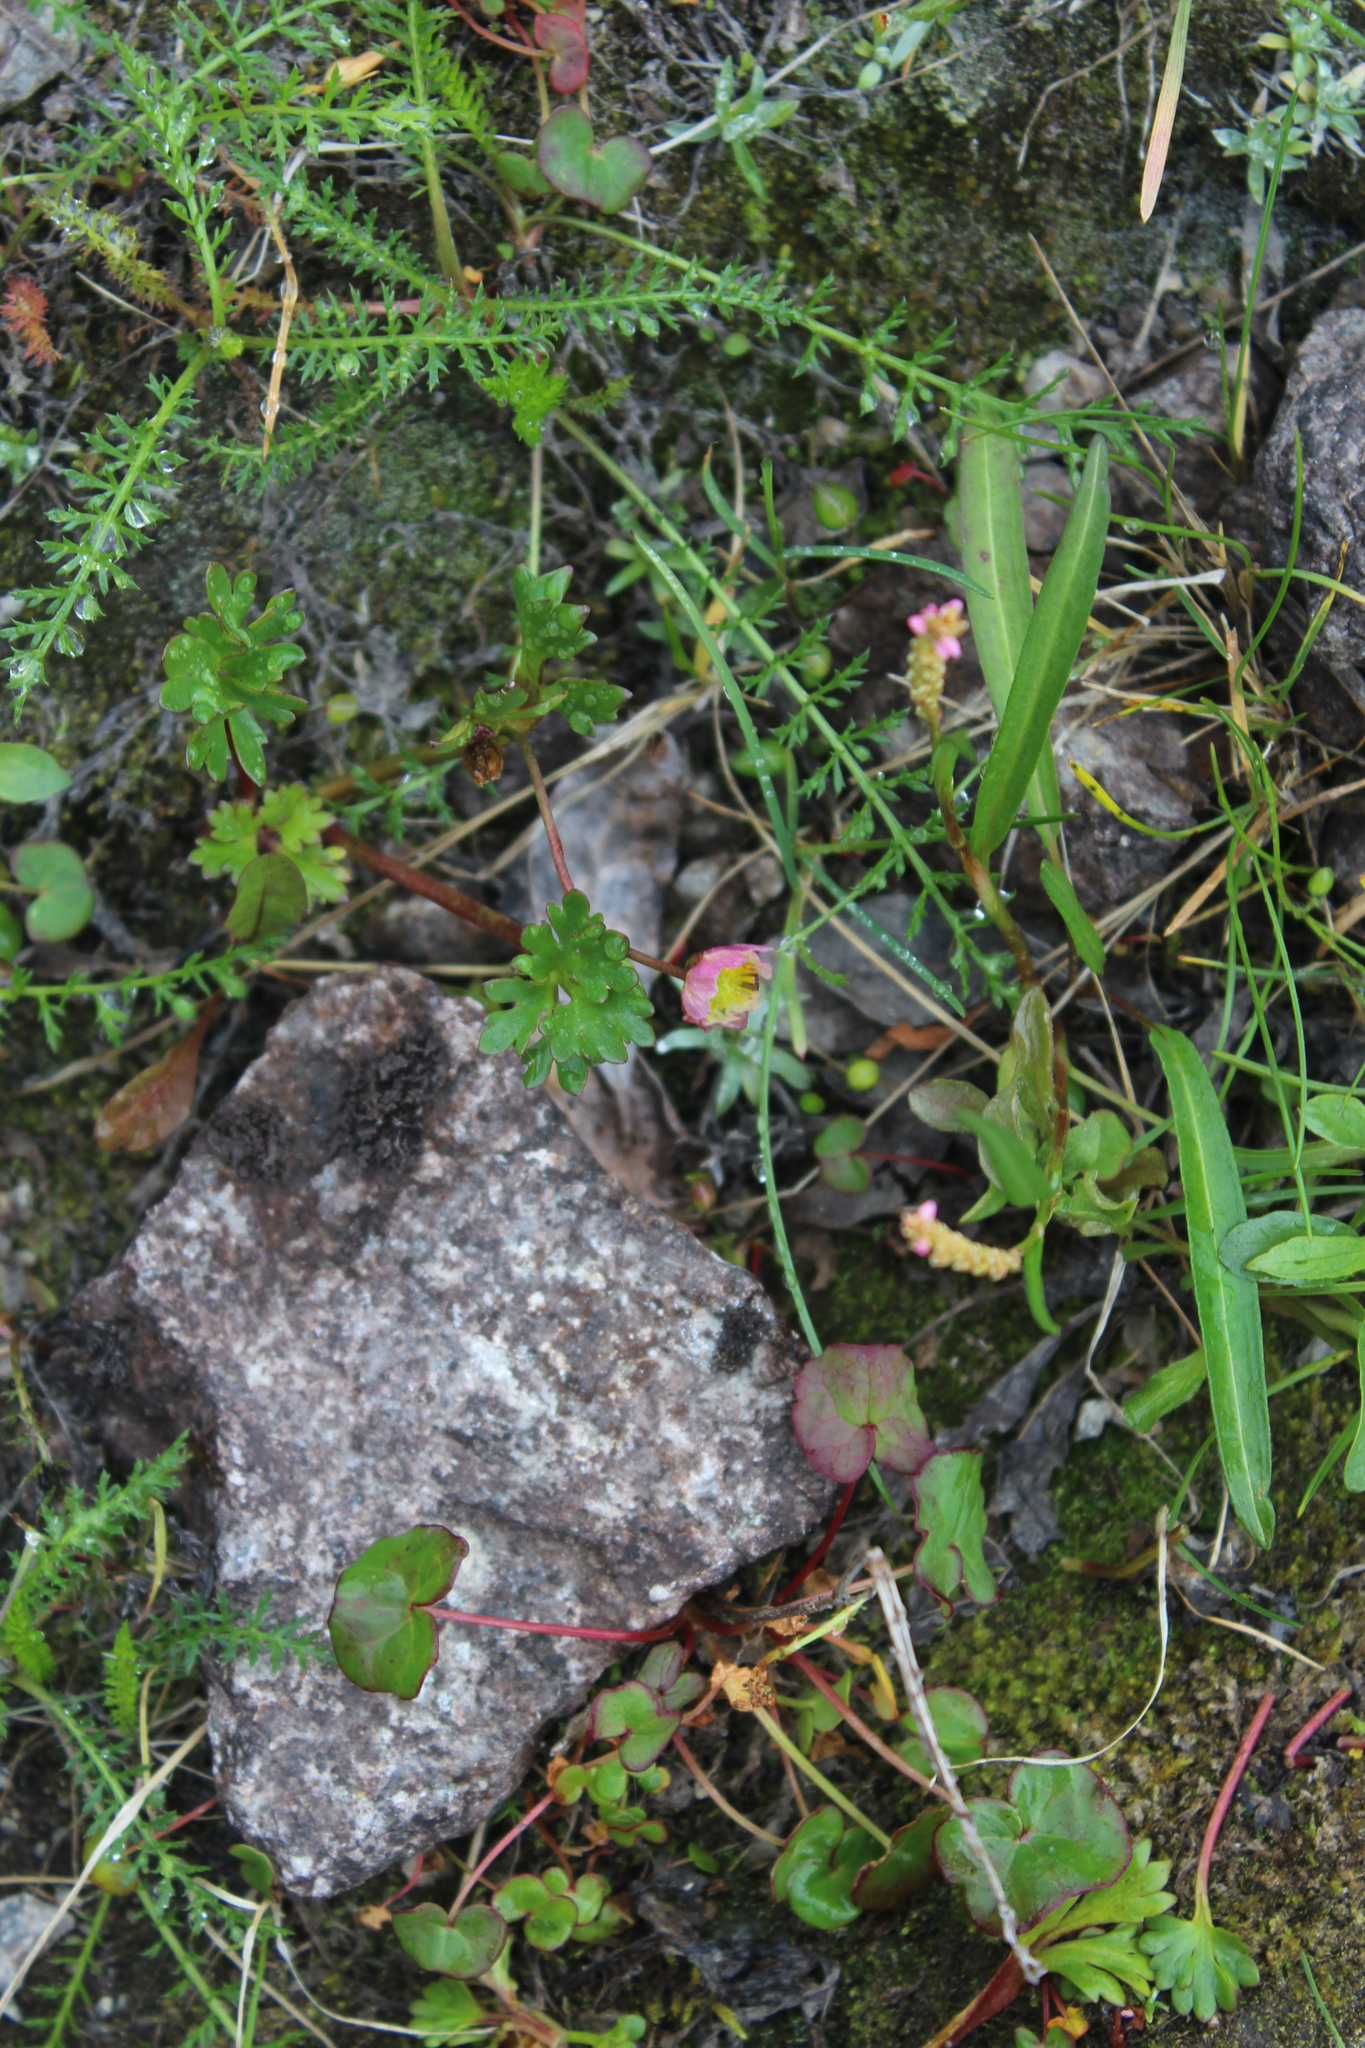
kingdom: Plantae
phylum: Tracheophyta
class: Magnoliopsida
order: Ranunculales
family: Ranunculaceae
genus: Ranunculus
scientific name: Ranunculus glacialis
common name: Glacier buttercup
